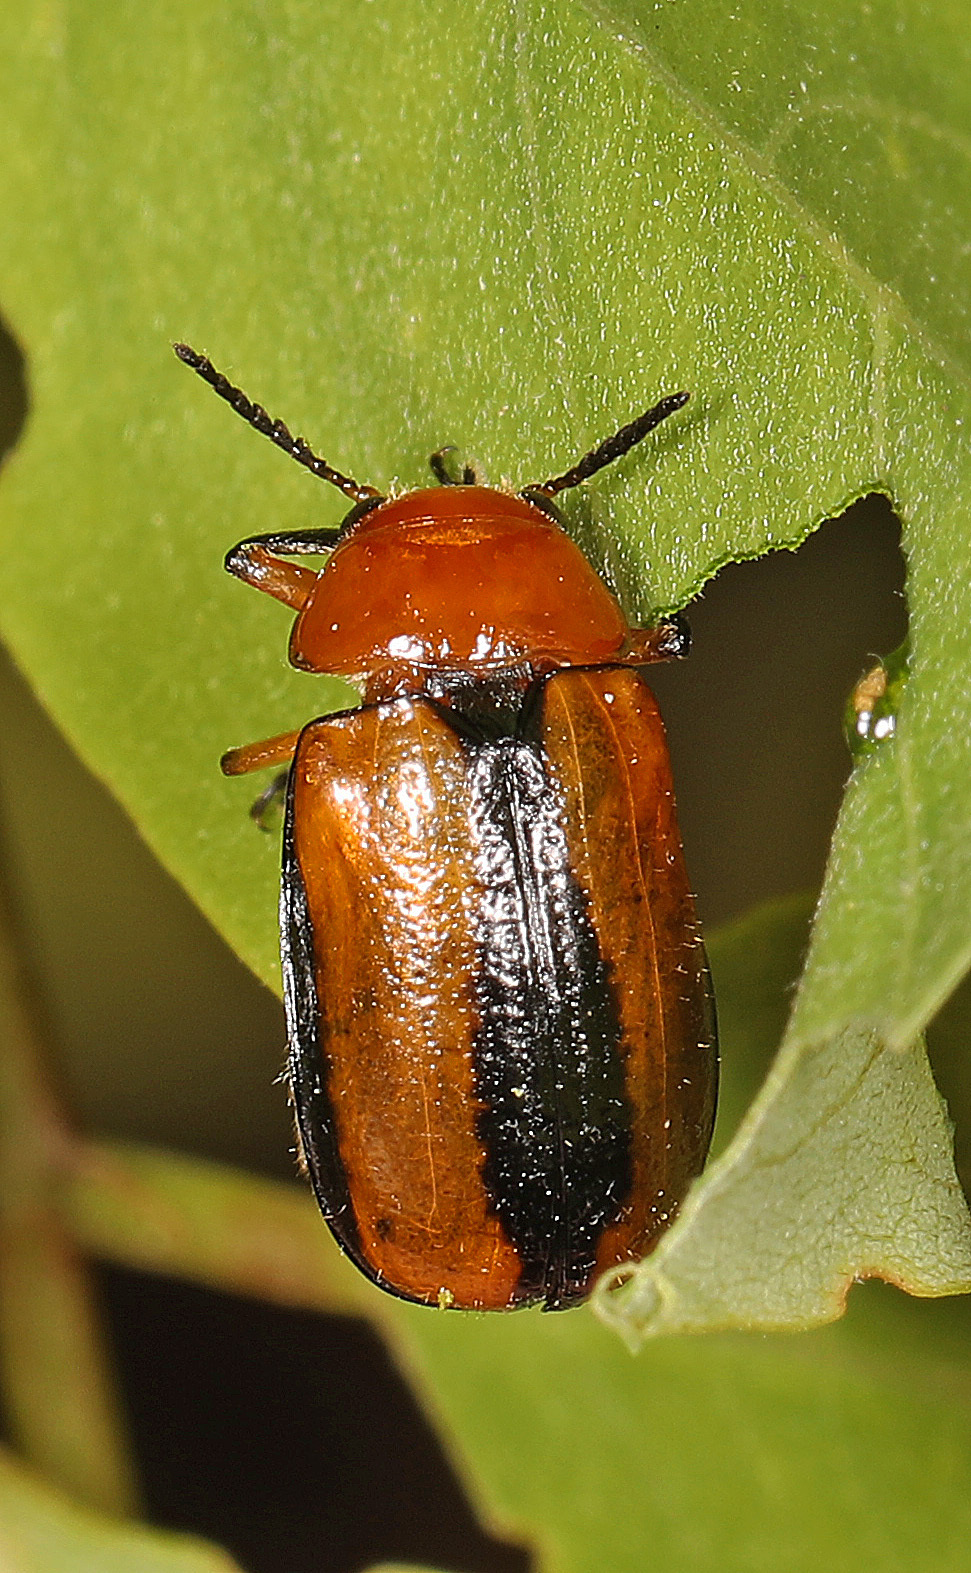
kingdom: Animalia
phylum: Arthropoda
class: Insecta
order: Coleoptera
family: Chrysomelidae
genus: Anomoea
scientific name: Anomoea laticlavia
